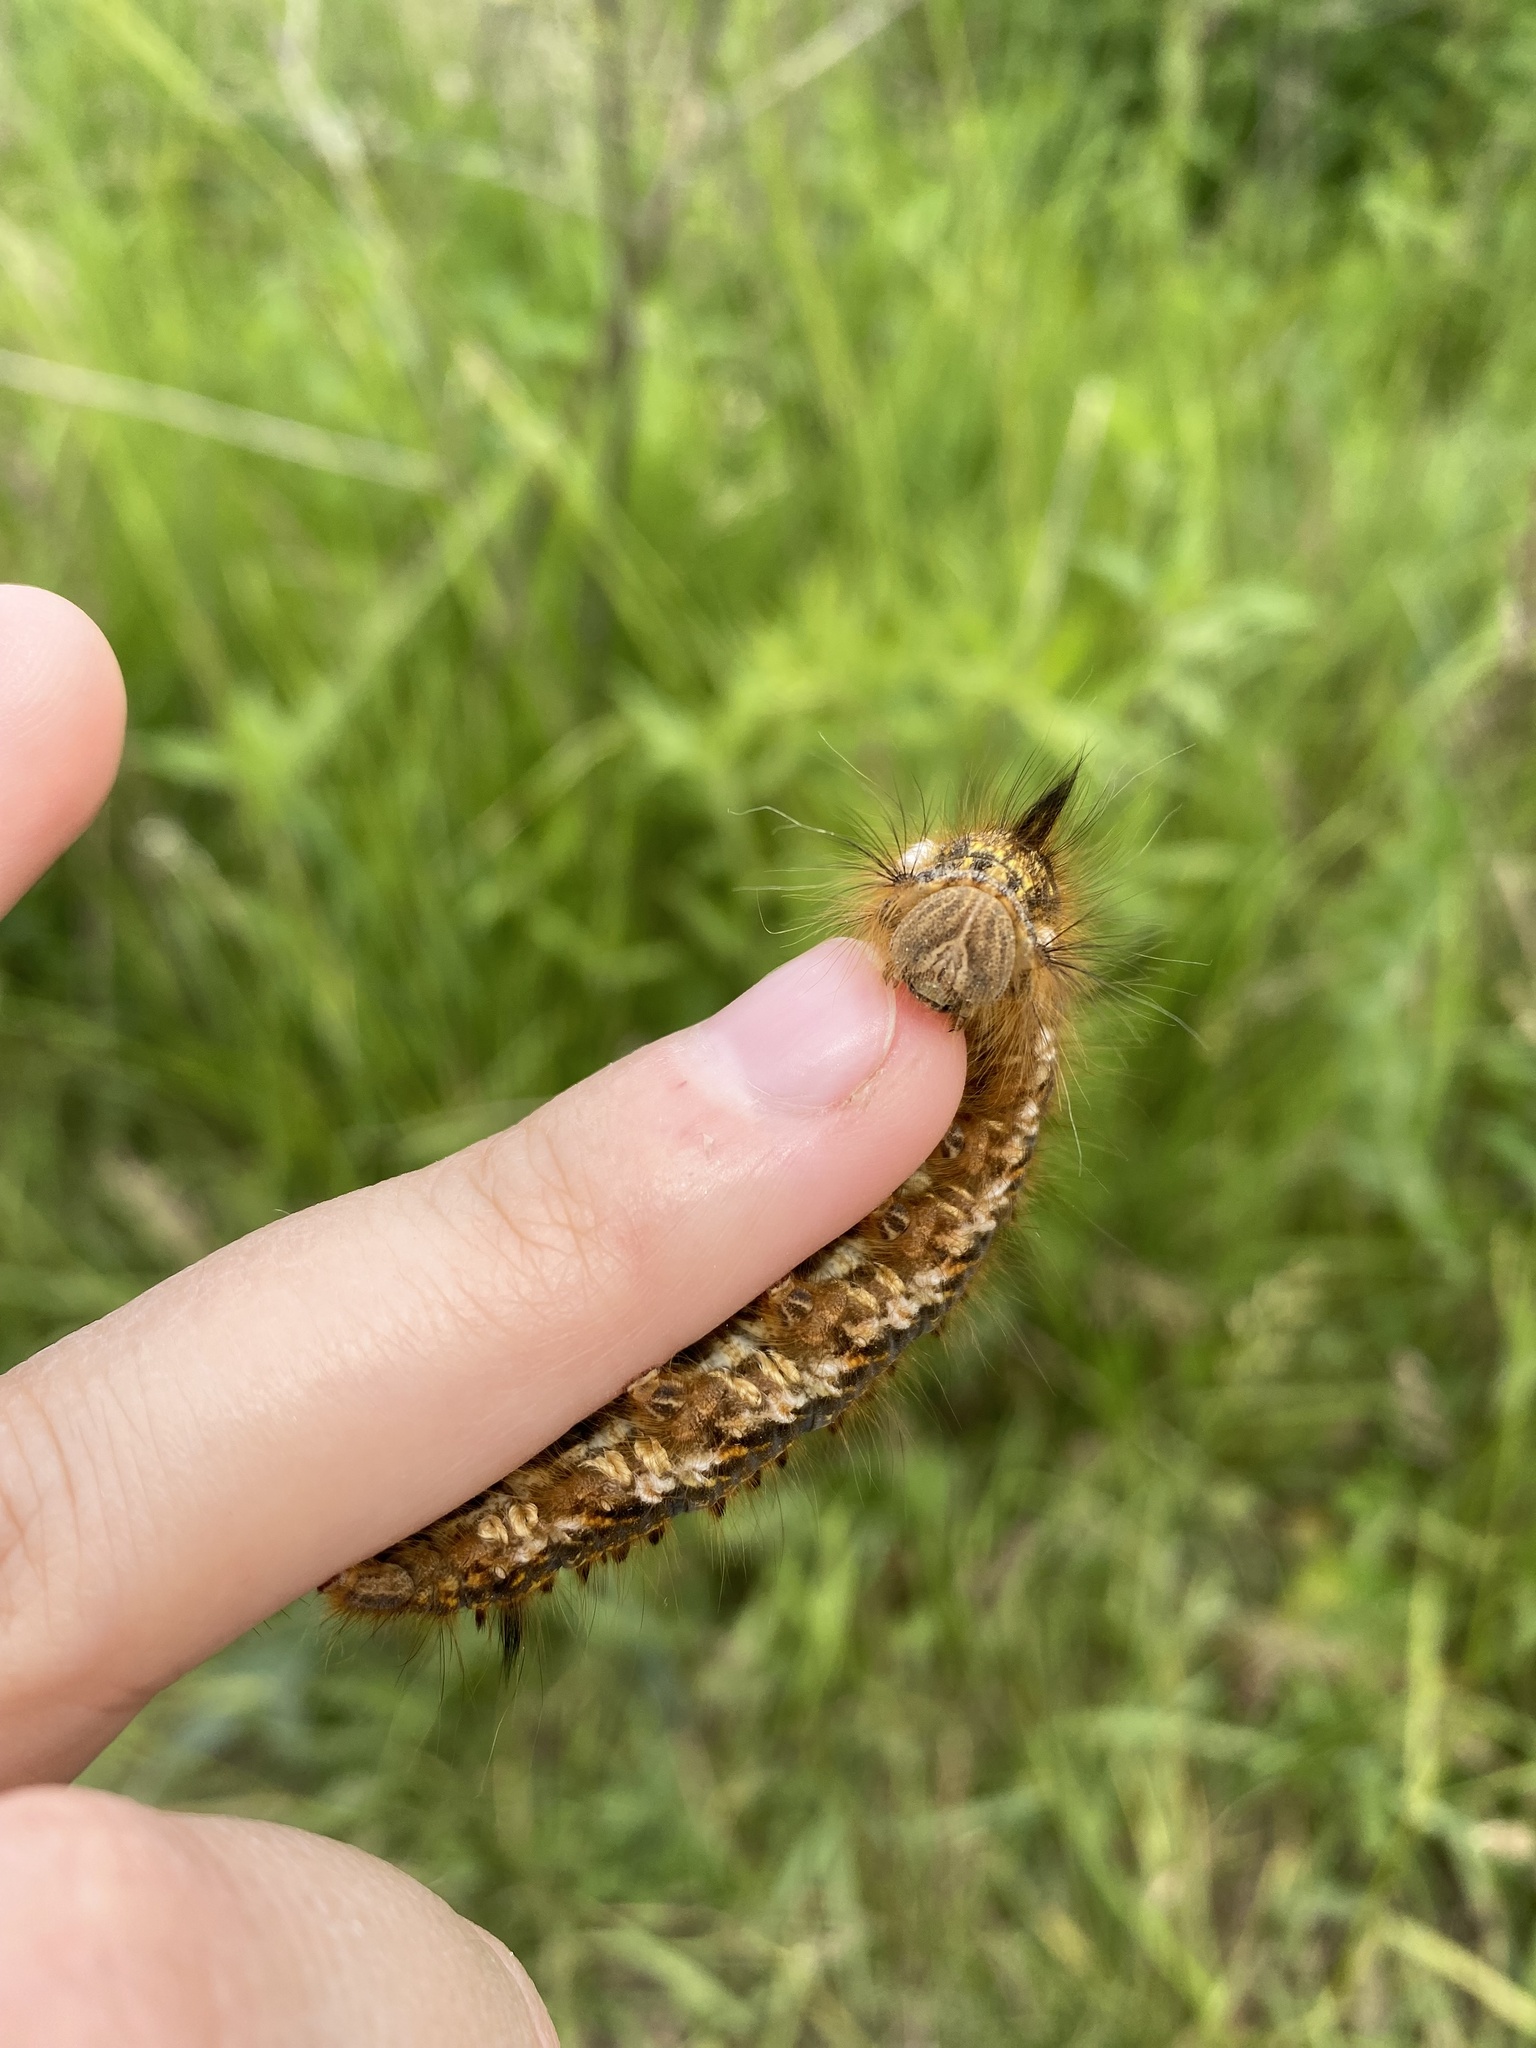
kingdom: Animalia
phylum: Arthropoda
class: Insecta
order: Lepidoptera
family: Lasiocampidae
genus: Euthrix
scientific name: Euthrix potatoria
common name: Drinker
